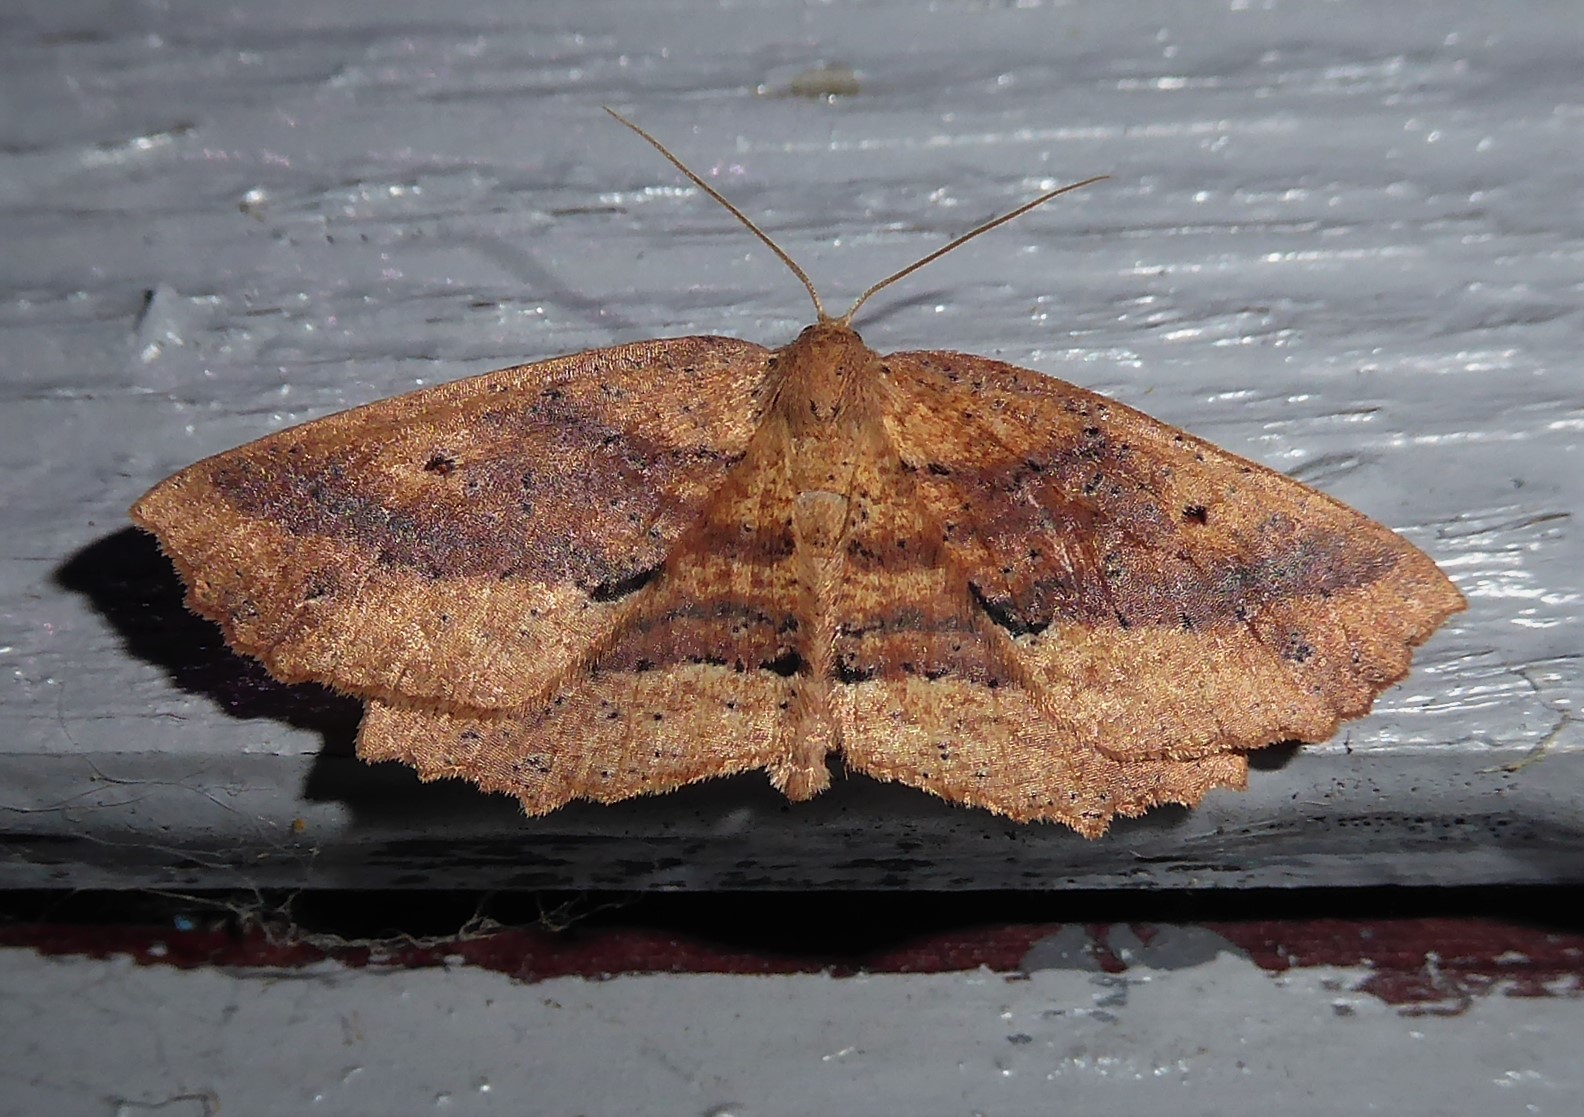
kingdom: Animalia
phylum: Arthropoda
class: Insecta
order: Lepidoptera
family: Geometridae
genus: Xyridacma
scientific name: Xyridacma veronicae
